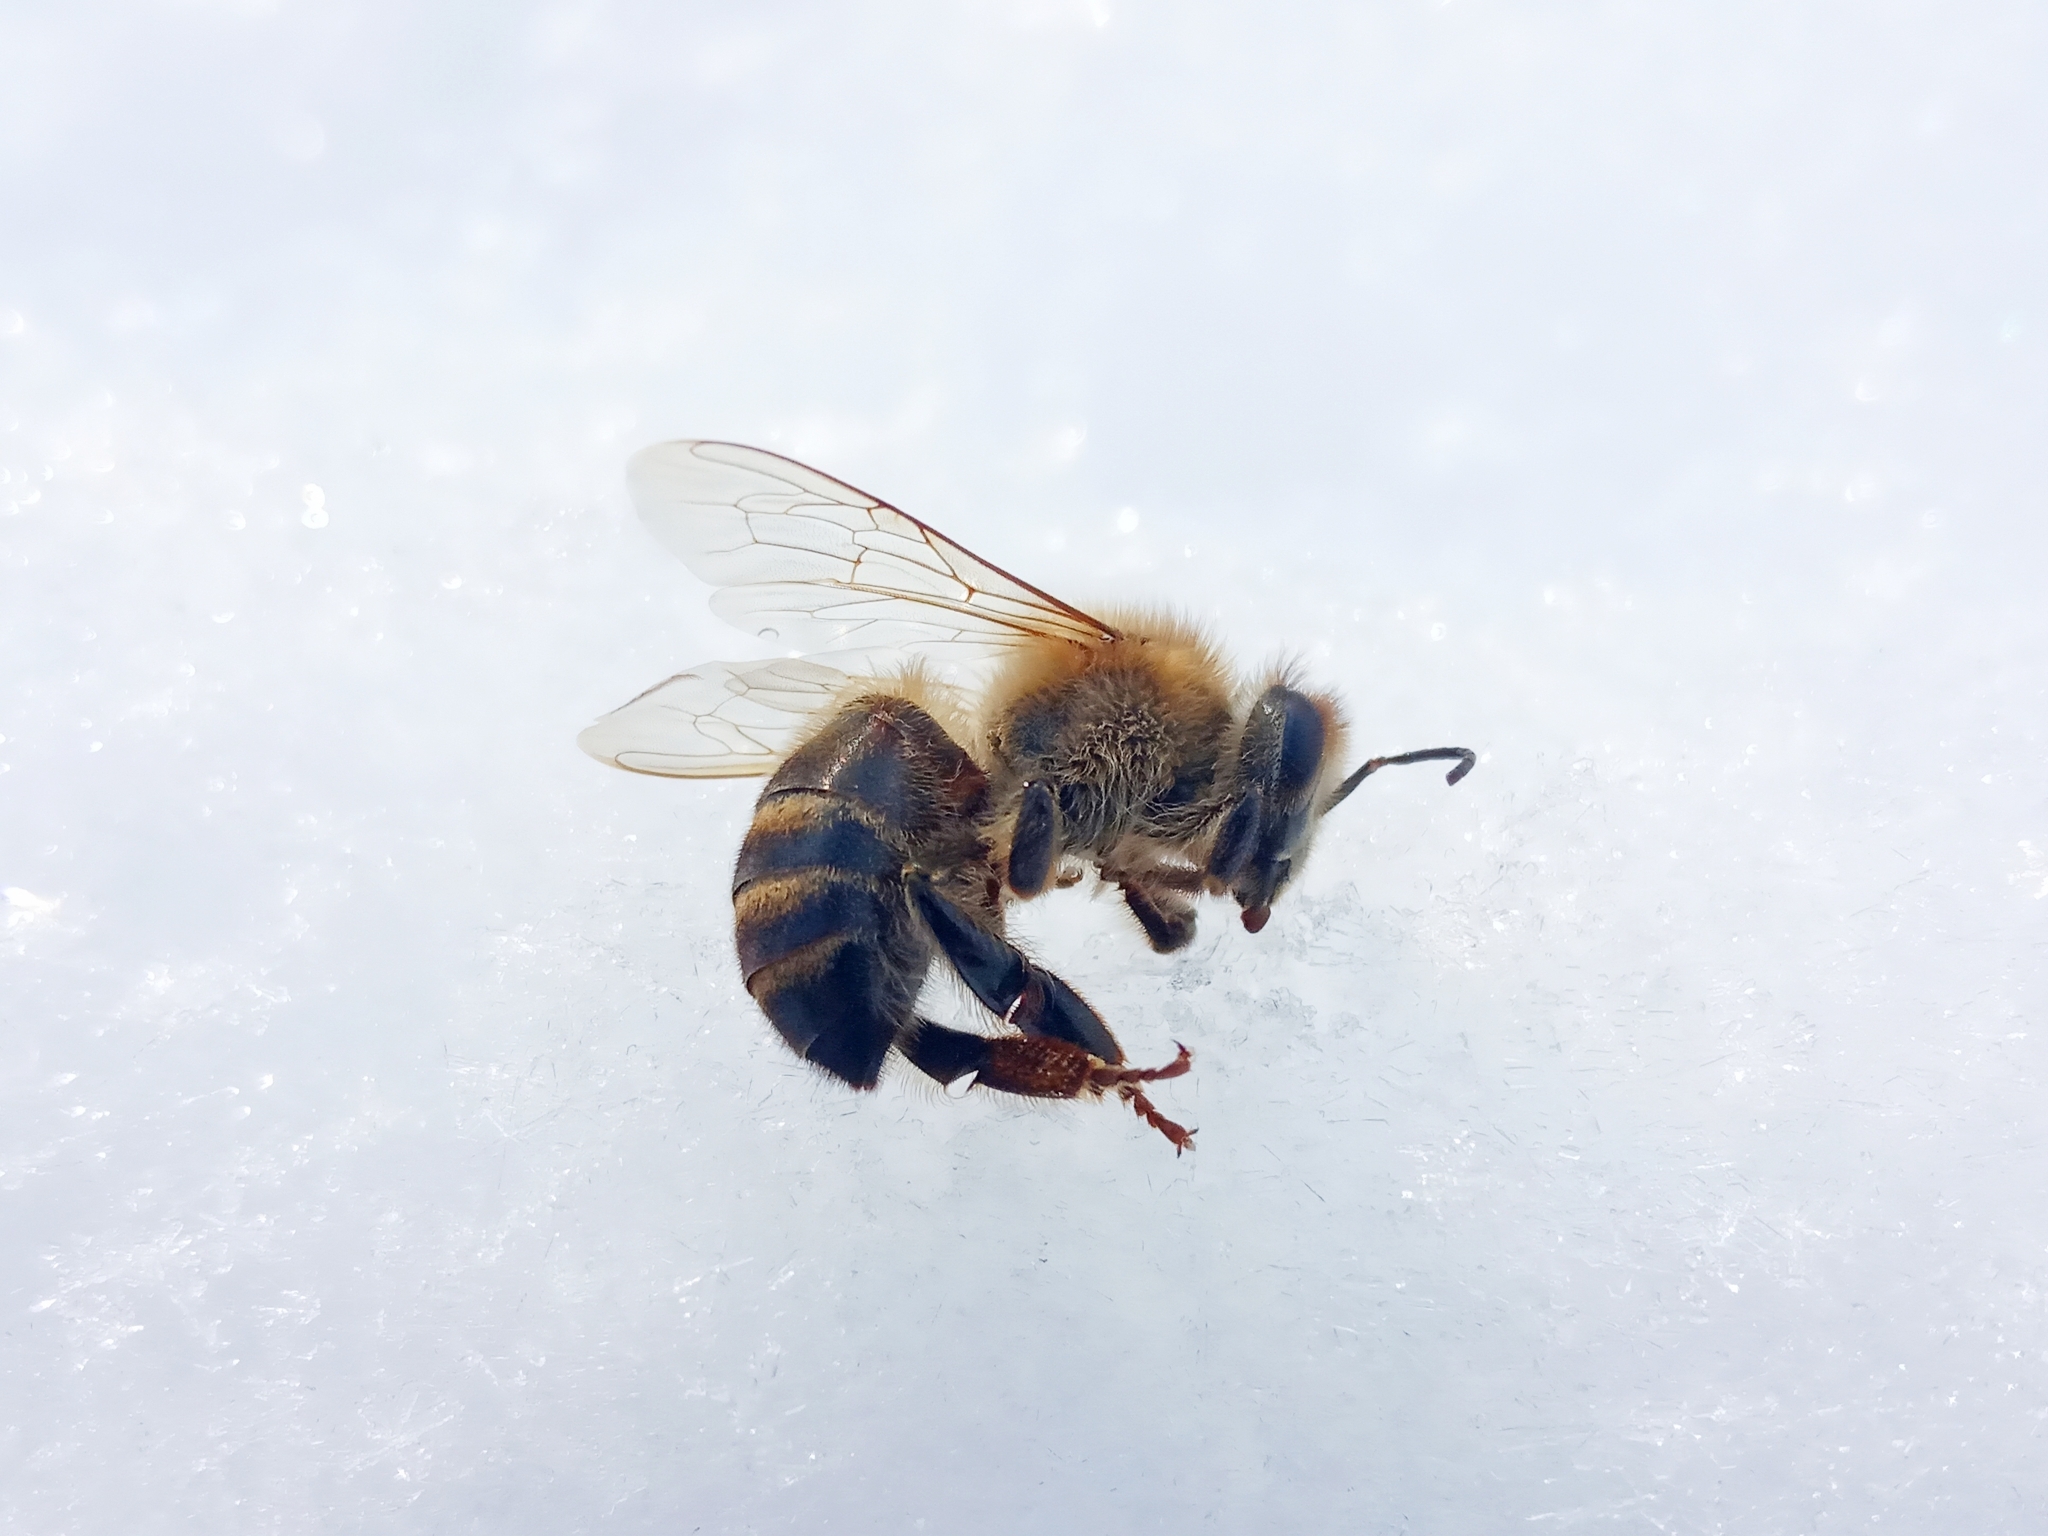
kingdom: Animalia
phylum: Arthropoda
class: Insecta
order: Hymenoptera
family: Apidae
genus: Apis
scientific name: Apis mellifera
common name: Honey bee
